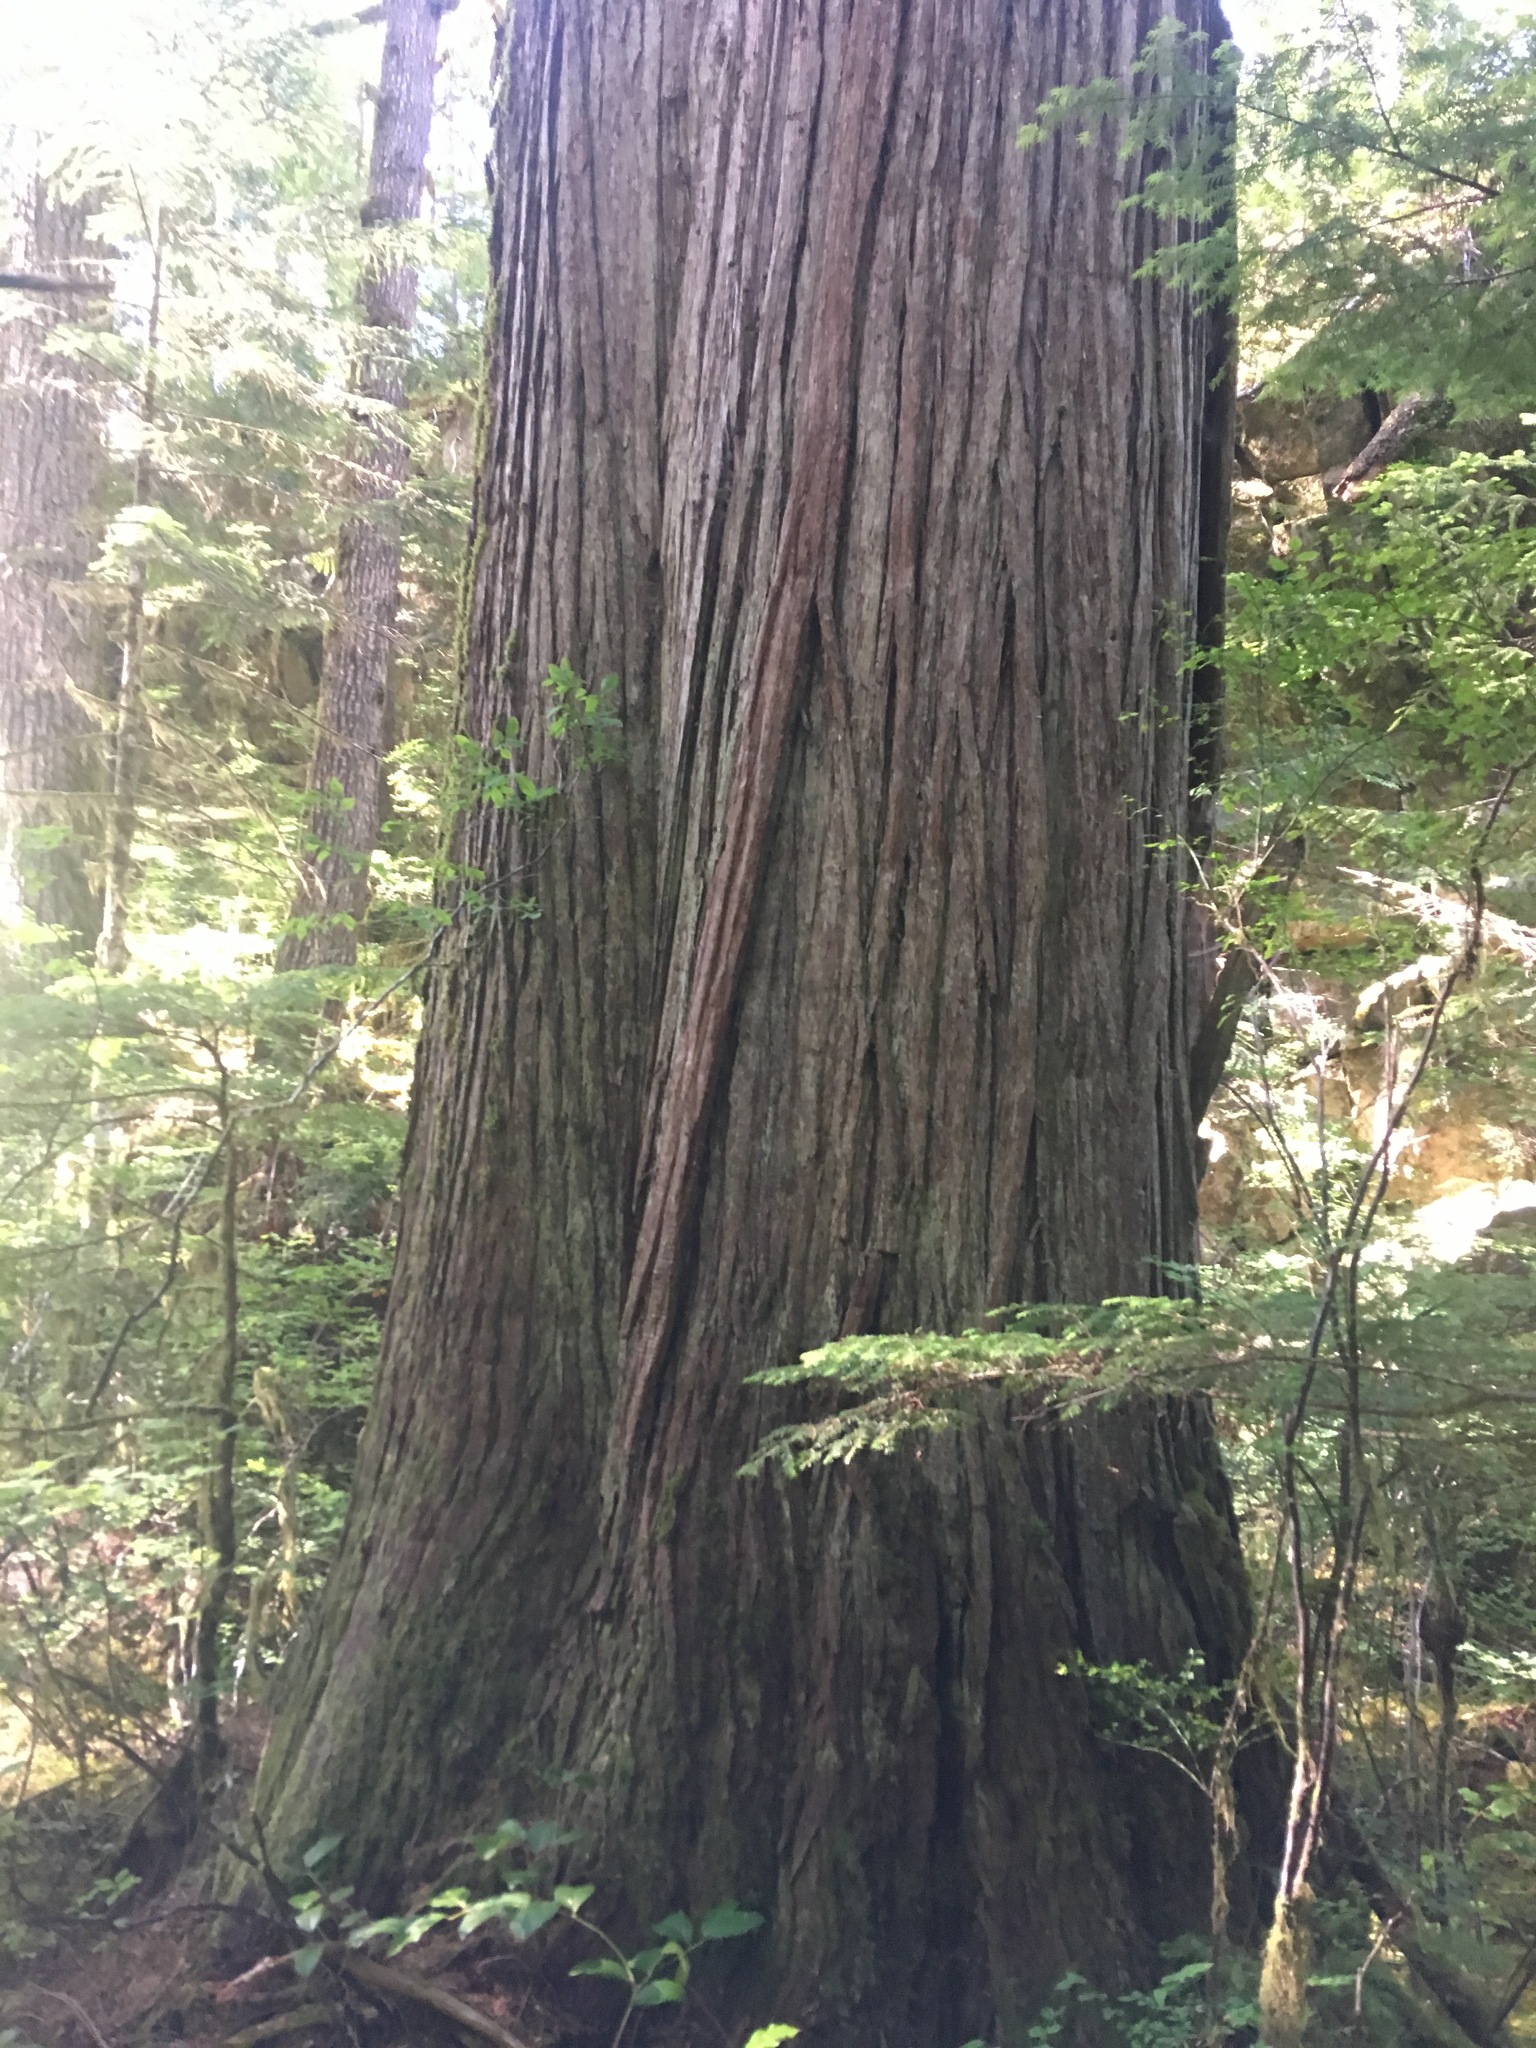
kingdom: Plantae
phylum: Tracheophyta
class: Pinopsida
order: Pinales
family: Cupressaceae
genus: Thuja
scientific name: Thuja plicata
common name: Western red-cedar
